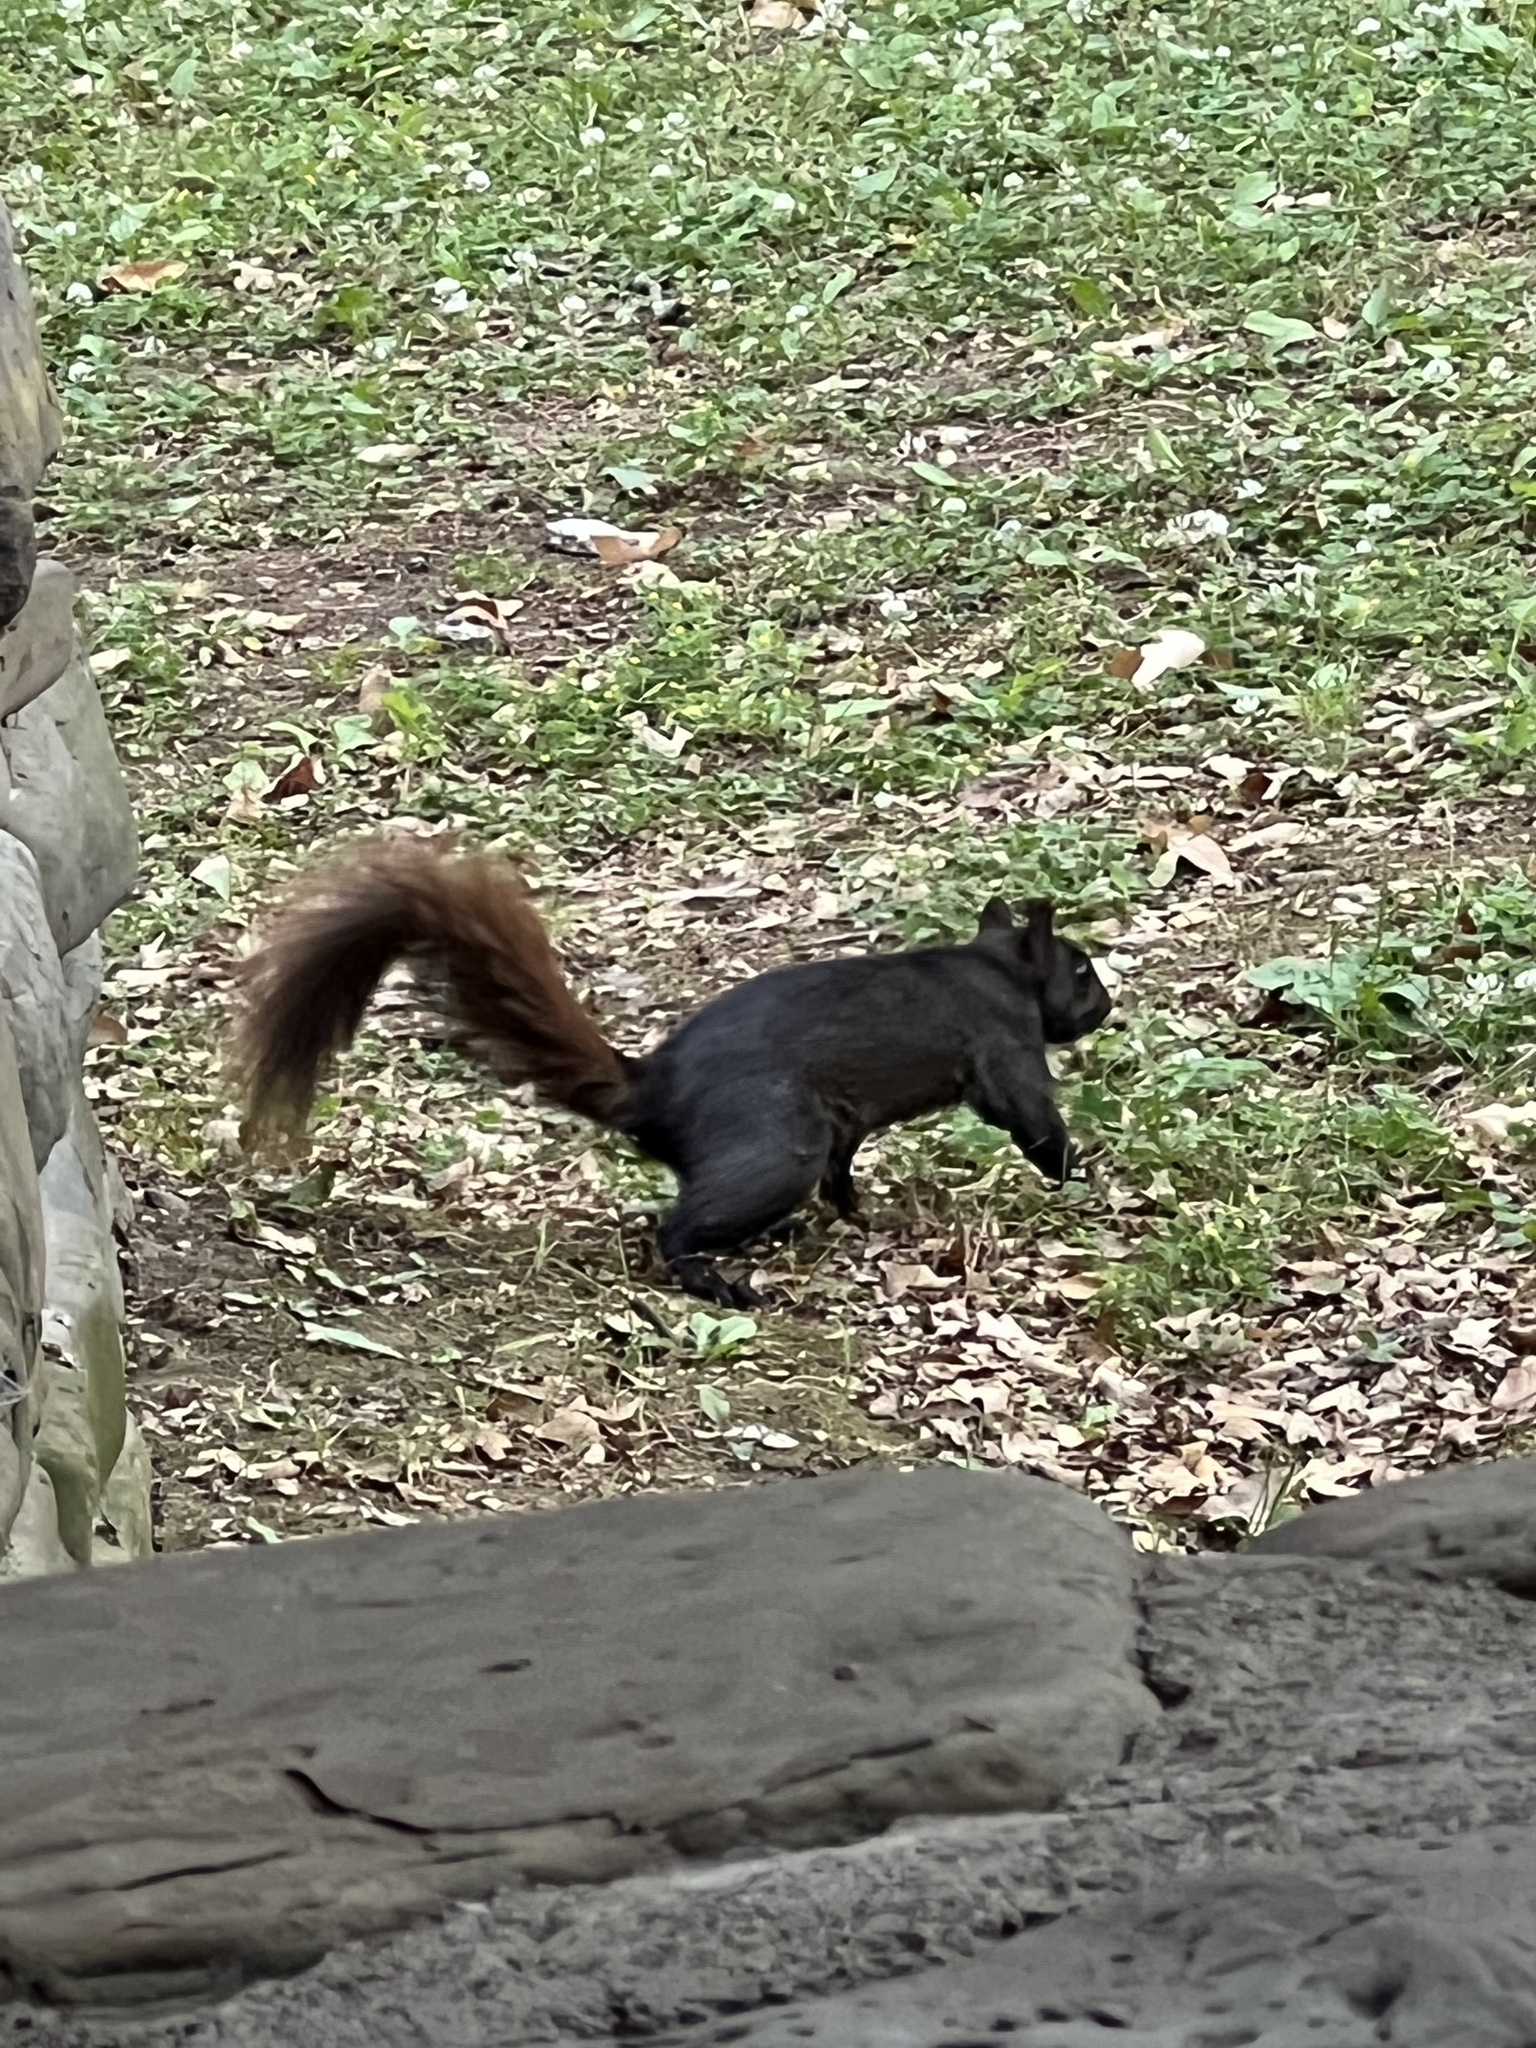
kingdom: Animalia
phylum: Chordata
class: Mammalia
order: Rodentia
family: Sciuridae
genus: Sciurus
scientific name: Sciurus carolinensis
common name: Eastern gray squirrel
